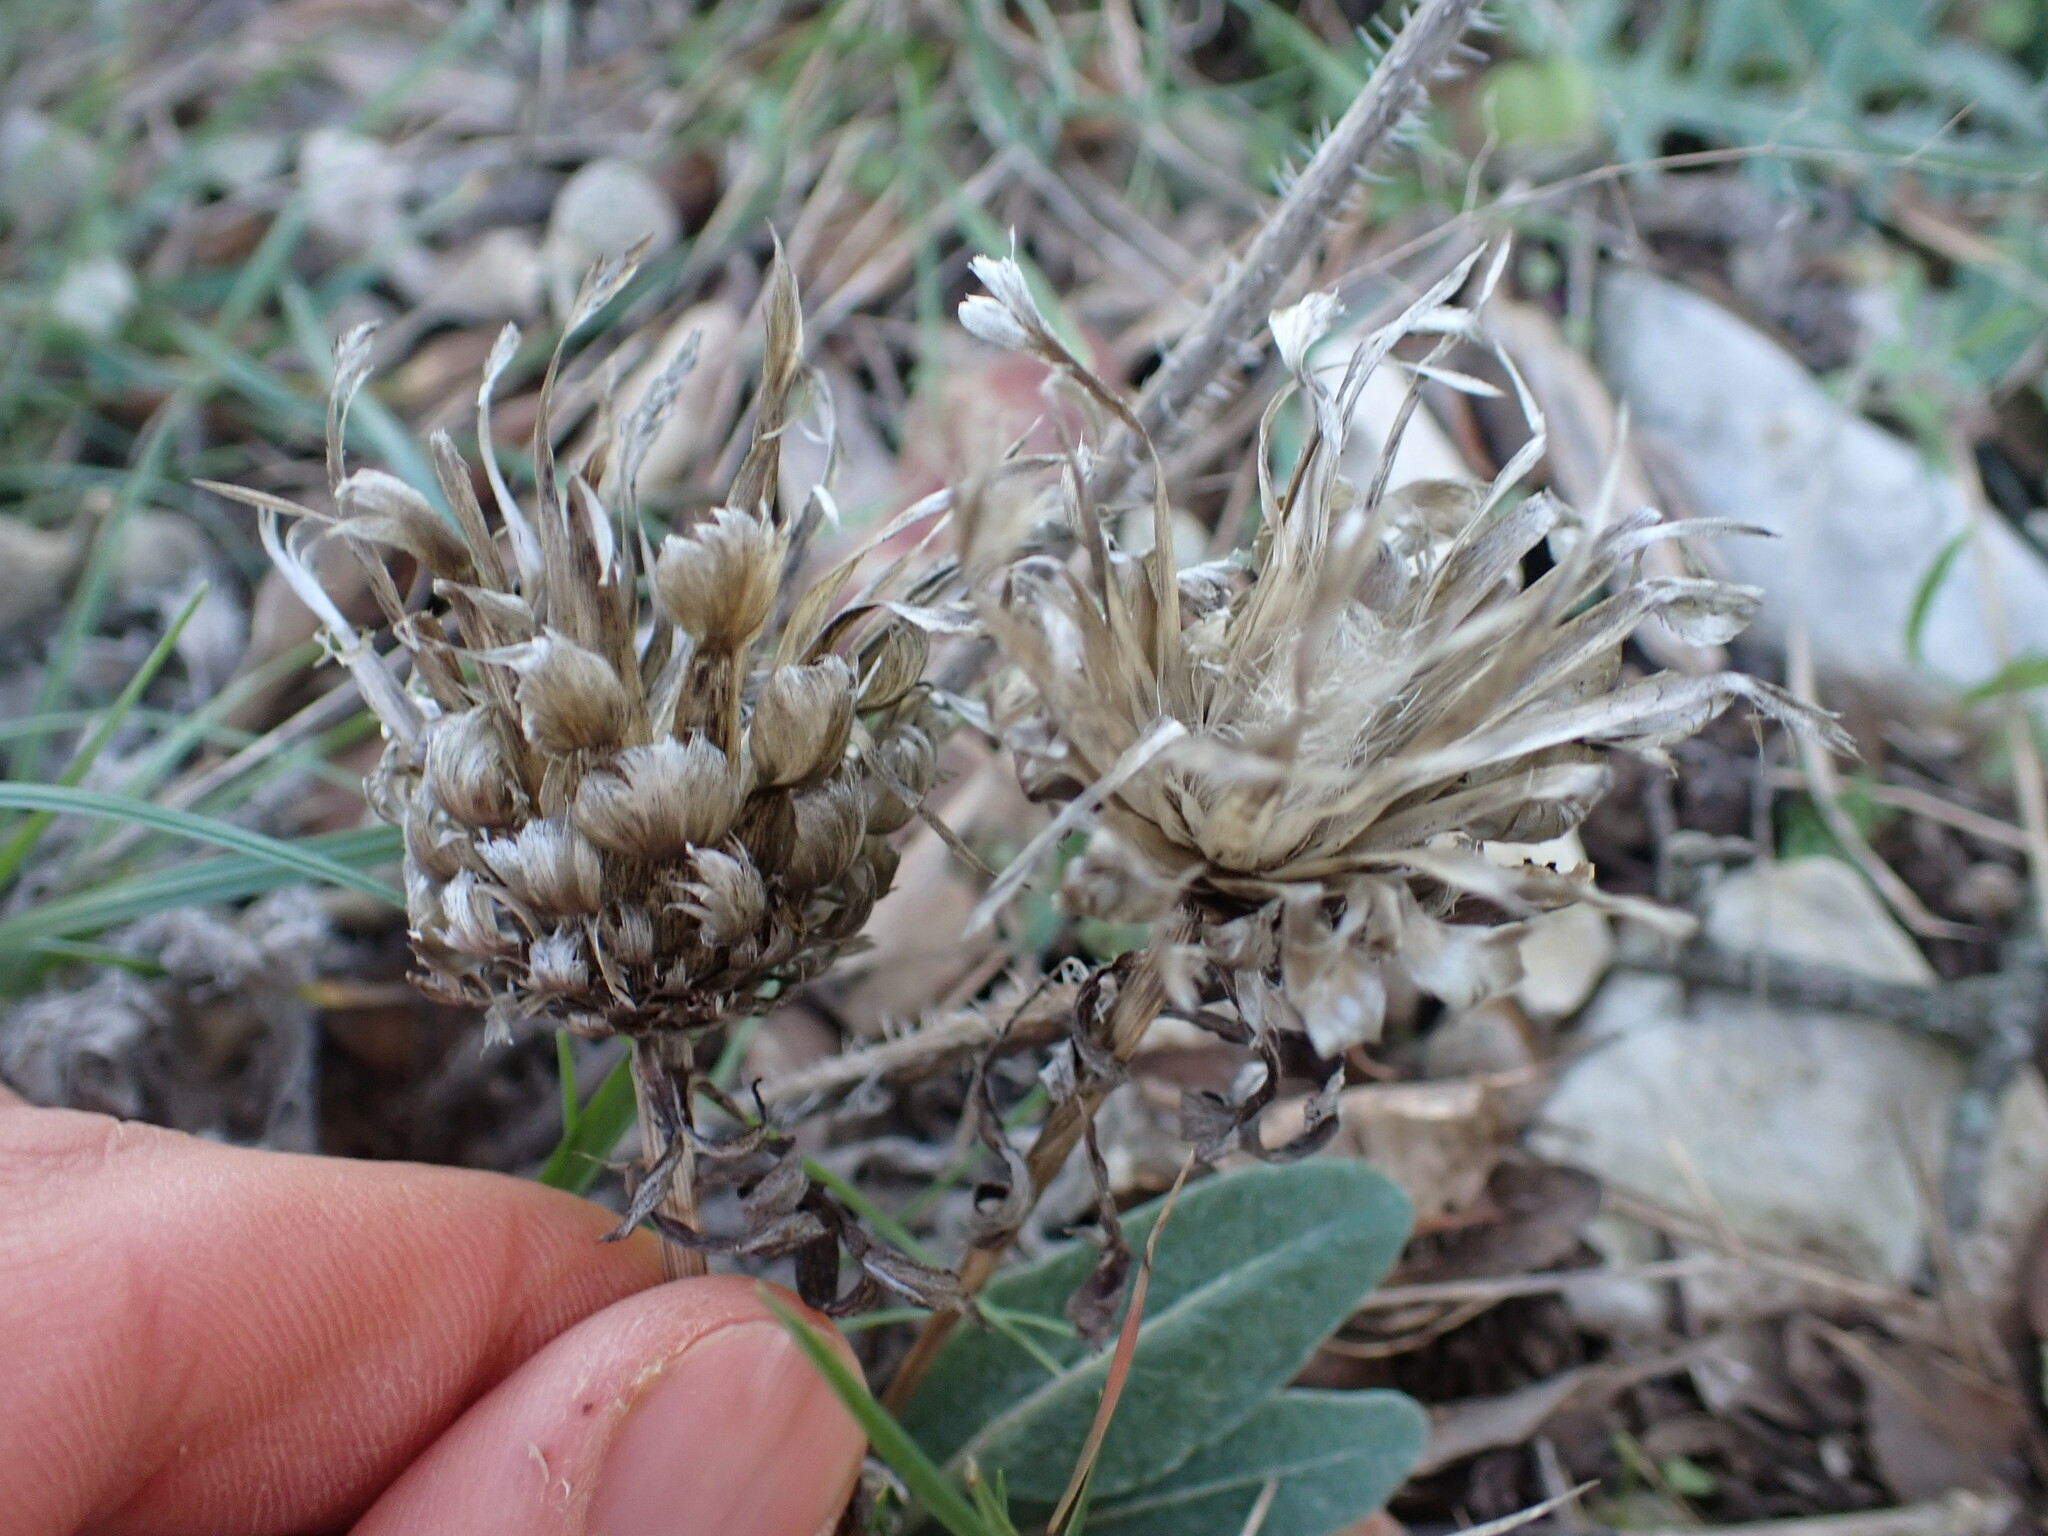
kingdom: Plantae
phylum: Tracheophyta
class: Magnoliopsida
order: Asterales
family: Asteraceae
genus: Leuzea
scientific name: Leuzea conifera
